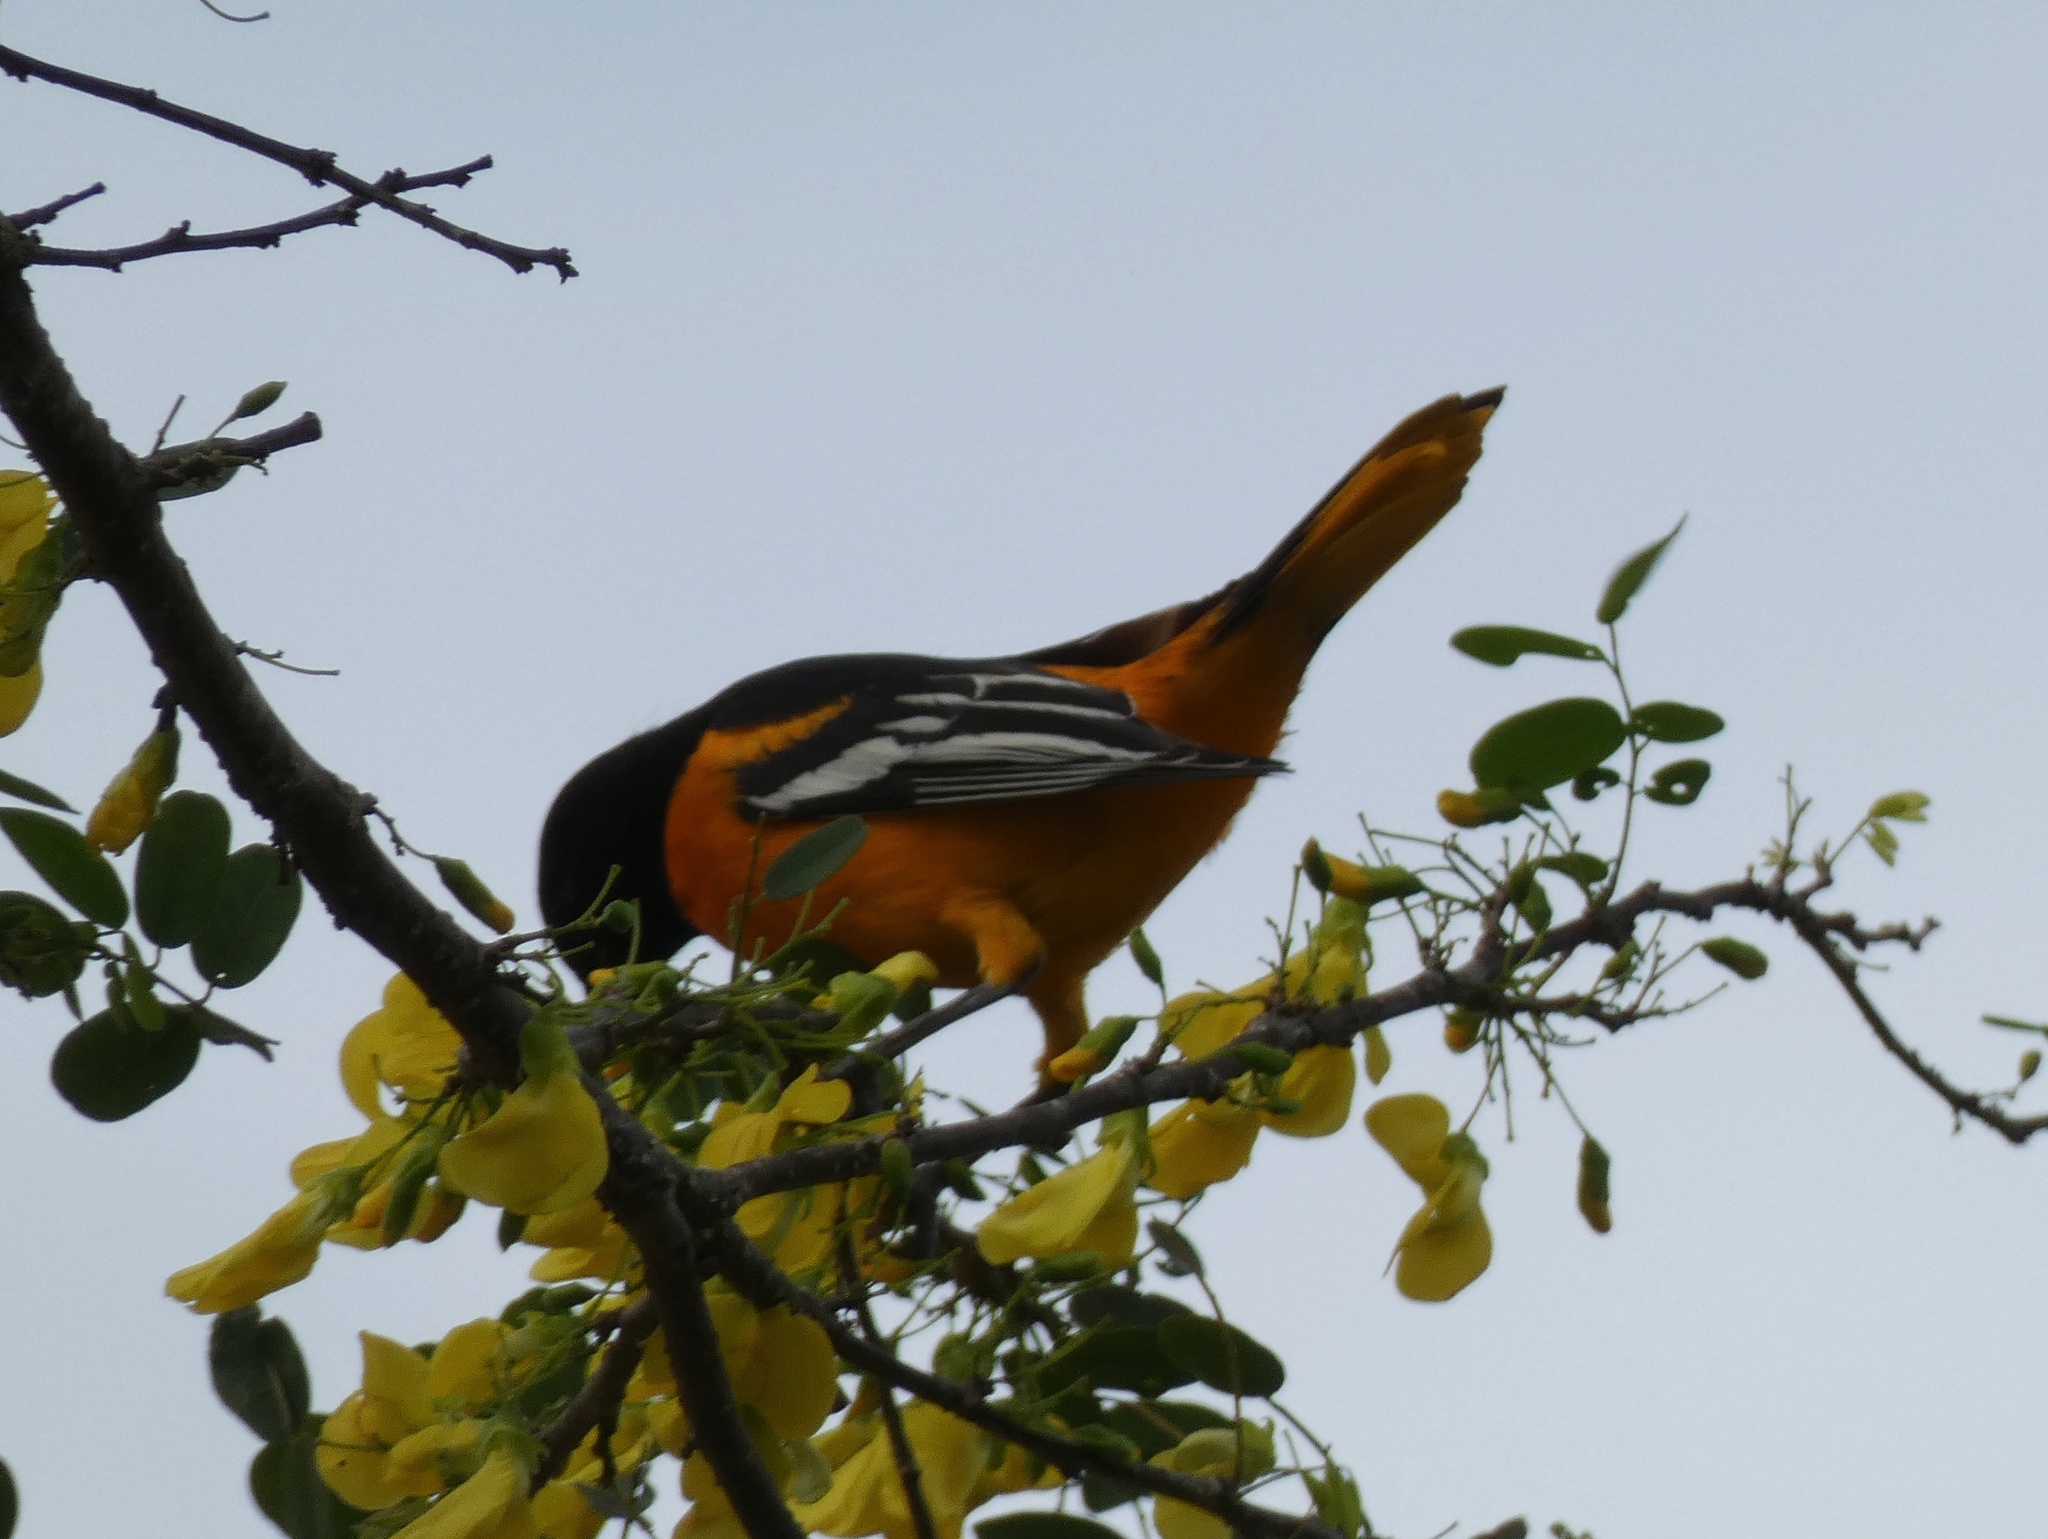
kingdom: Animalia
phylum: Chordata
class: Aves
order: Passeriformes
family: Icteridae
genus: Icterus
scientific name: Icterus galbula
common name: Baltimore oriole
